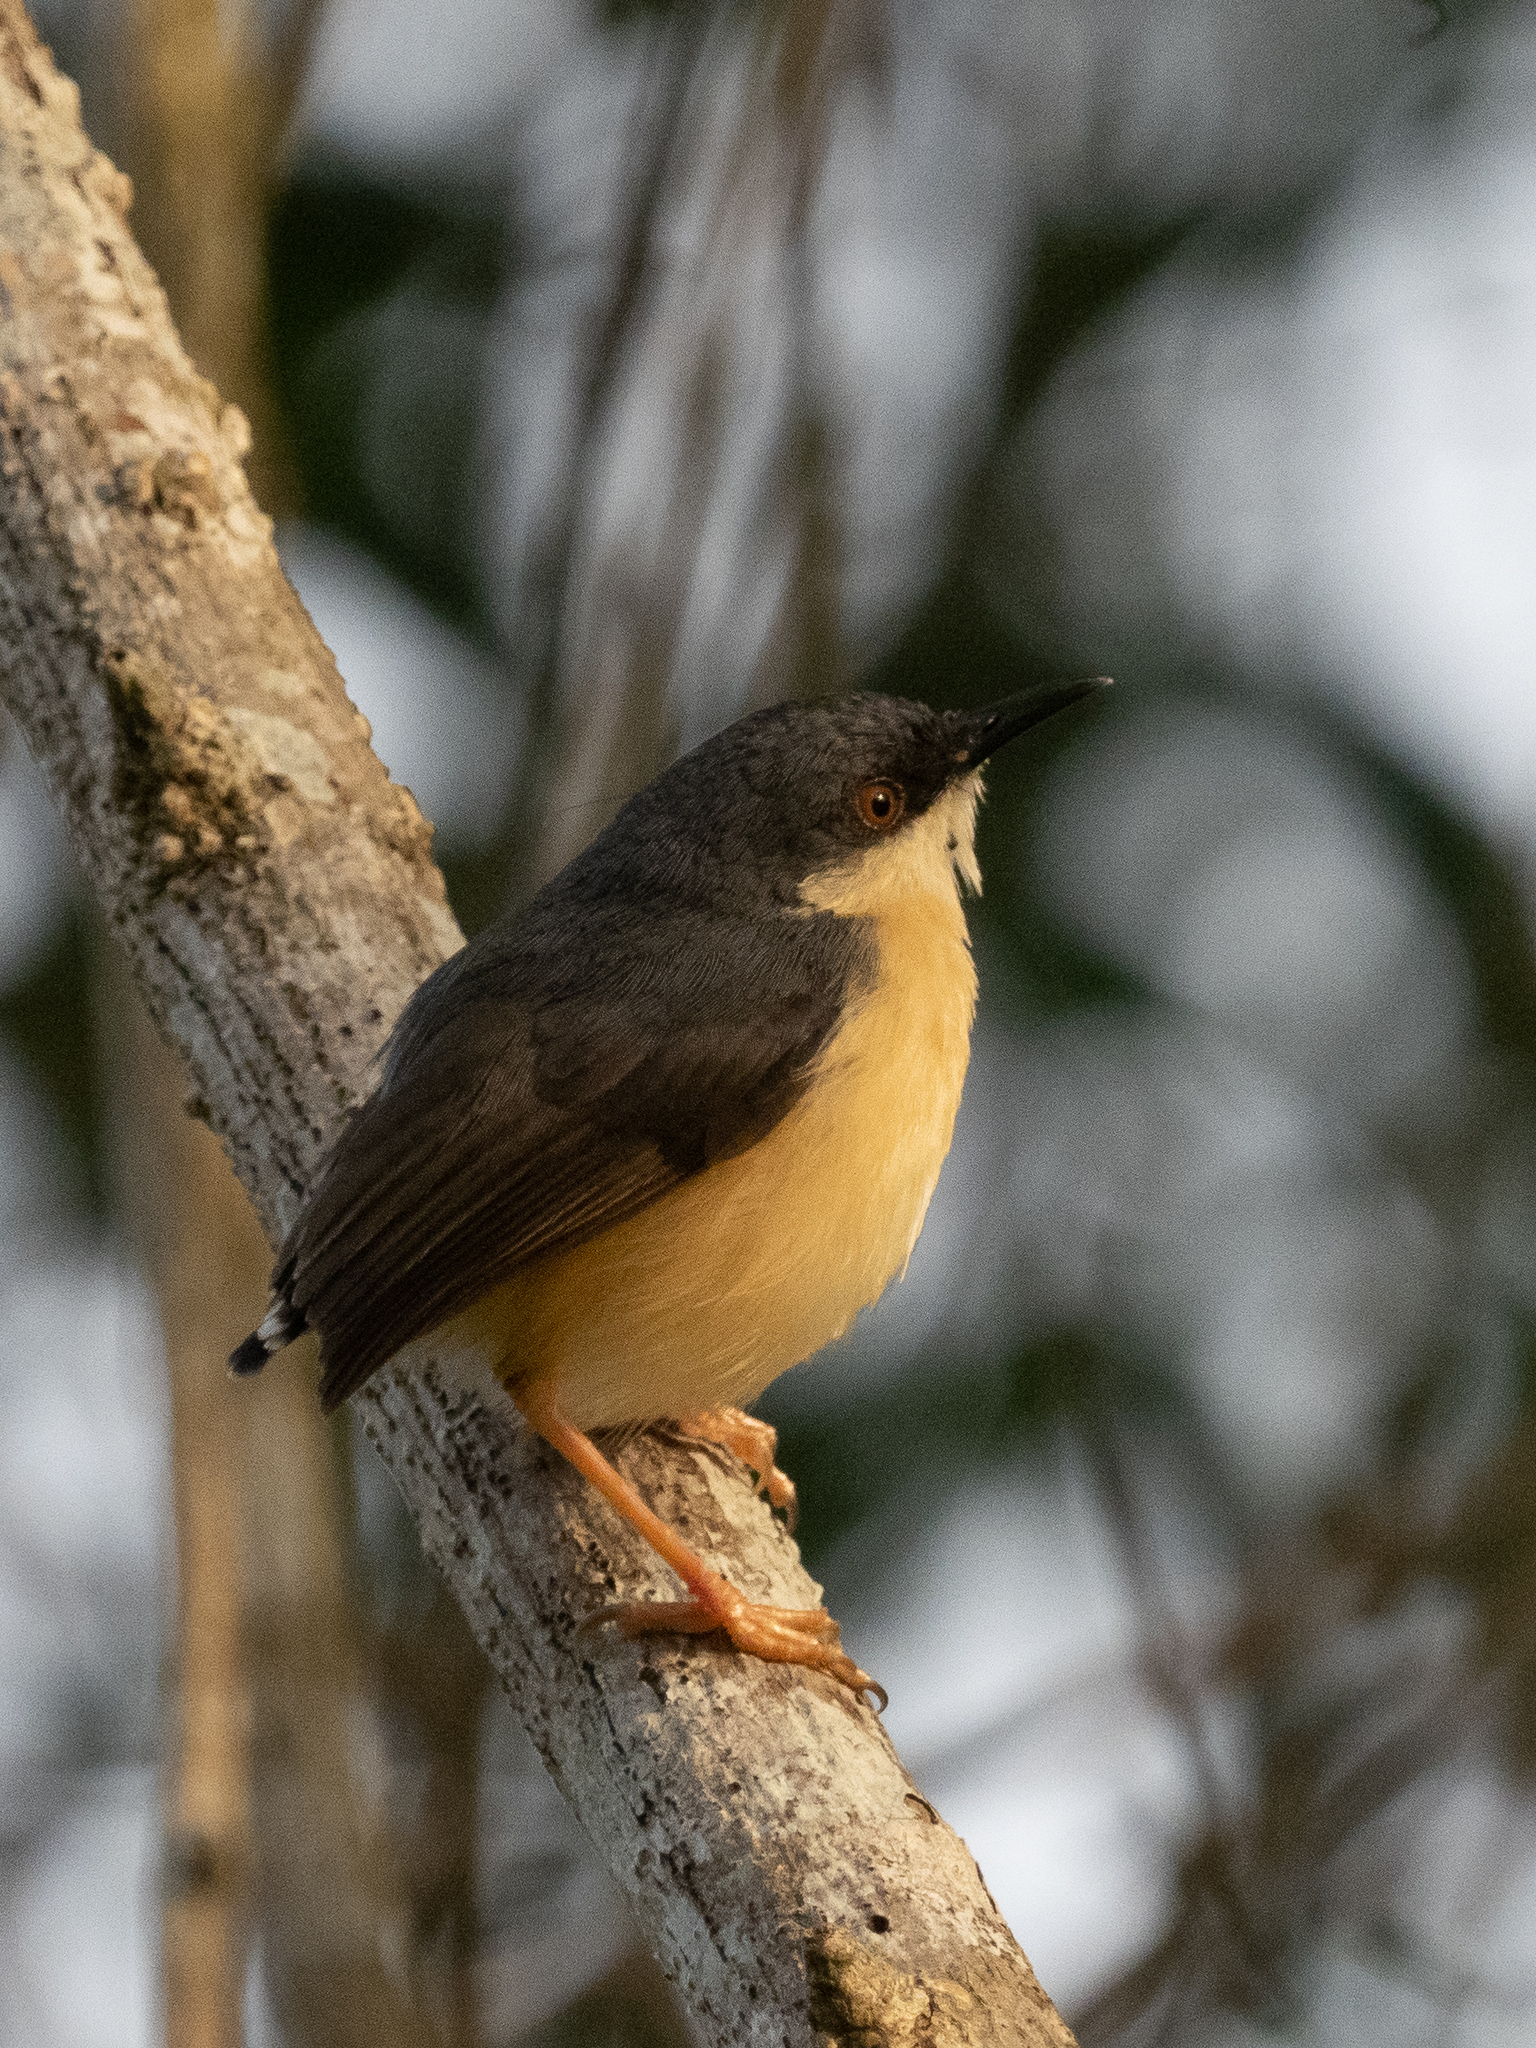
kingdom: Animalia
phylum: Chordata
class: Aves
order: Passeriformes
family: Cisticolidae
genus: Prinia
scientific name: Prinia socialis
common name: Ashy prinia
